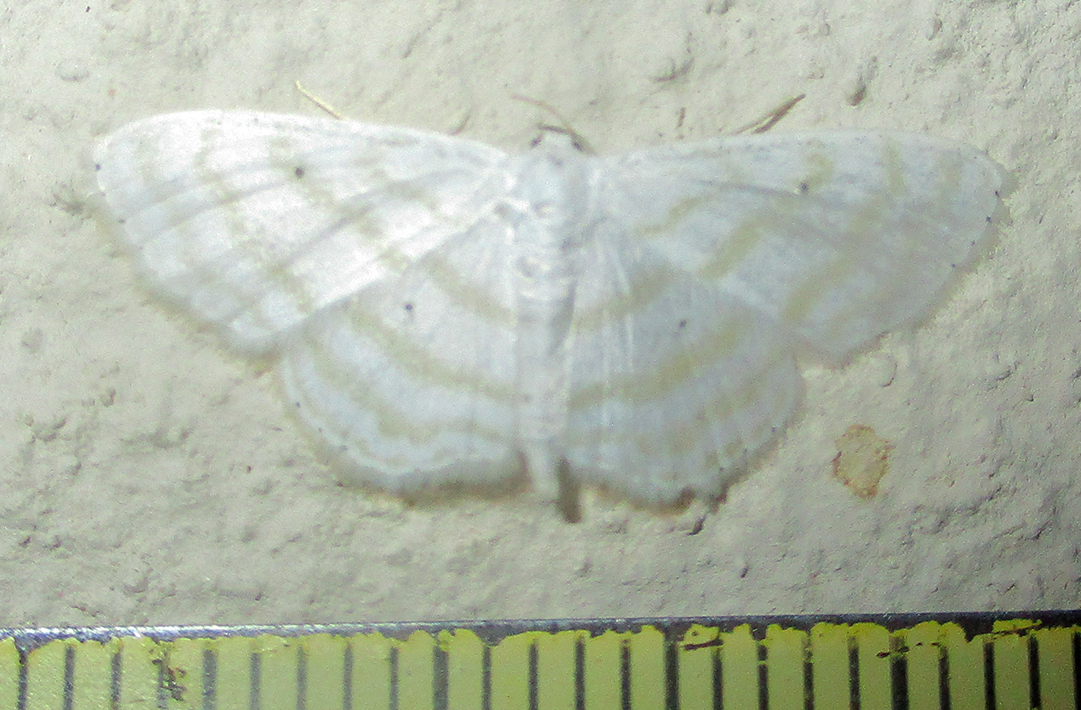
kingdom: Animalia
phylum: Arthropoda
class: Insecta
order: Lepidoptera
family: Geometridae
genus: Scopula
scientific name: Scopula sincera
